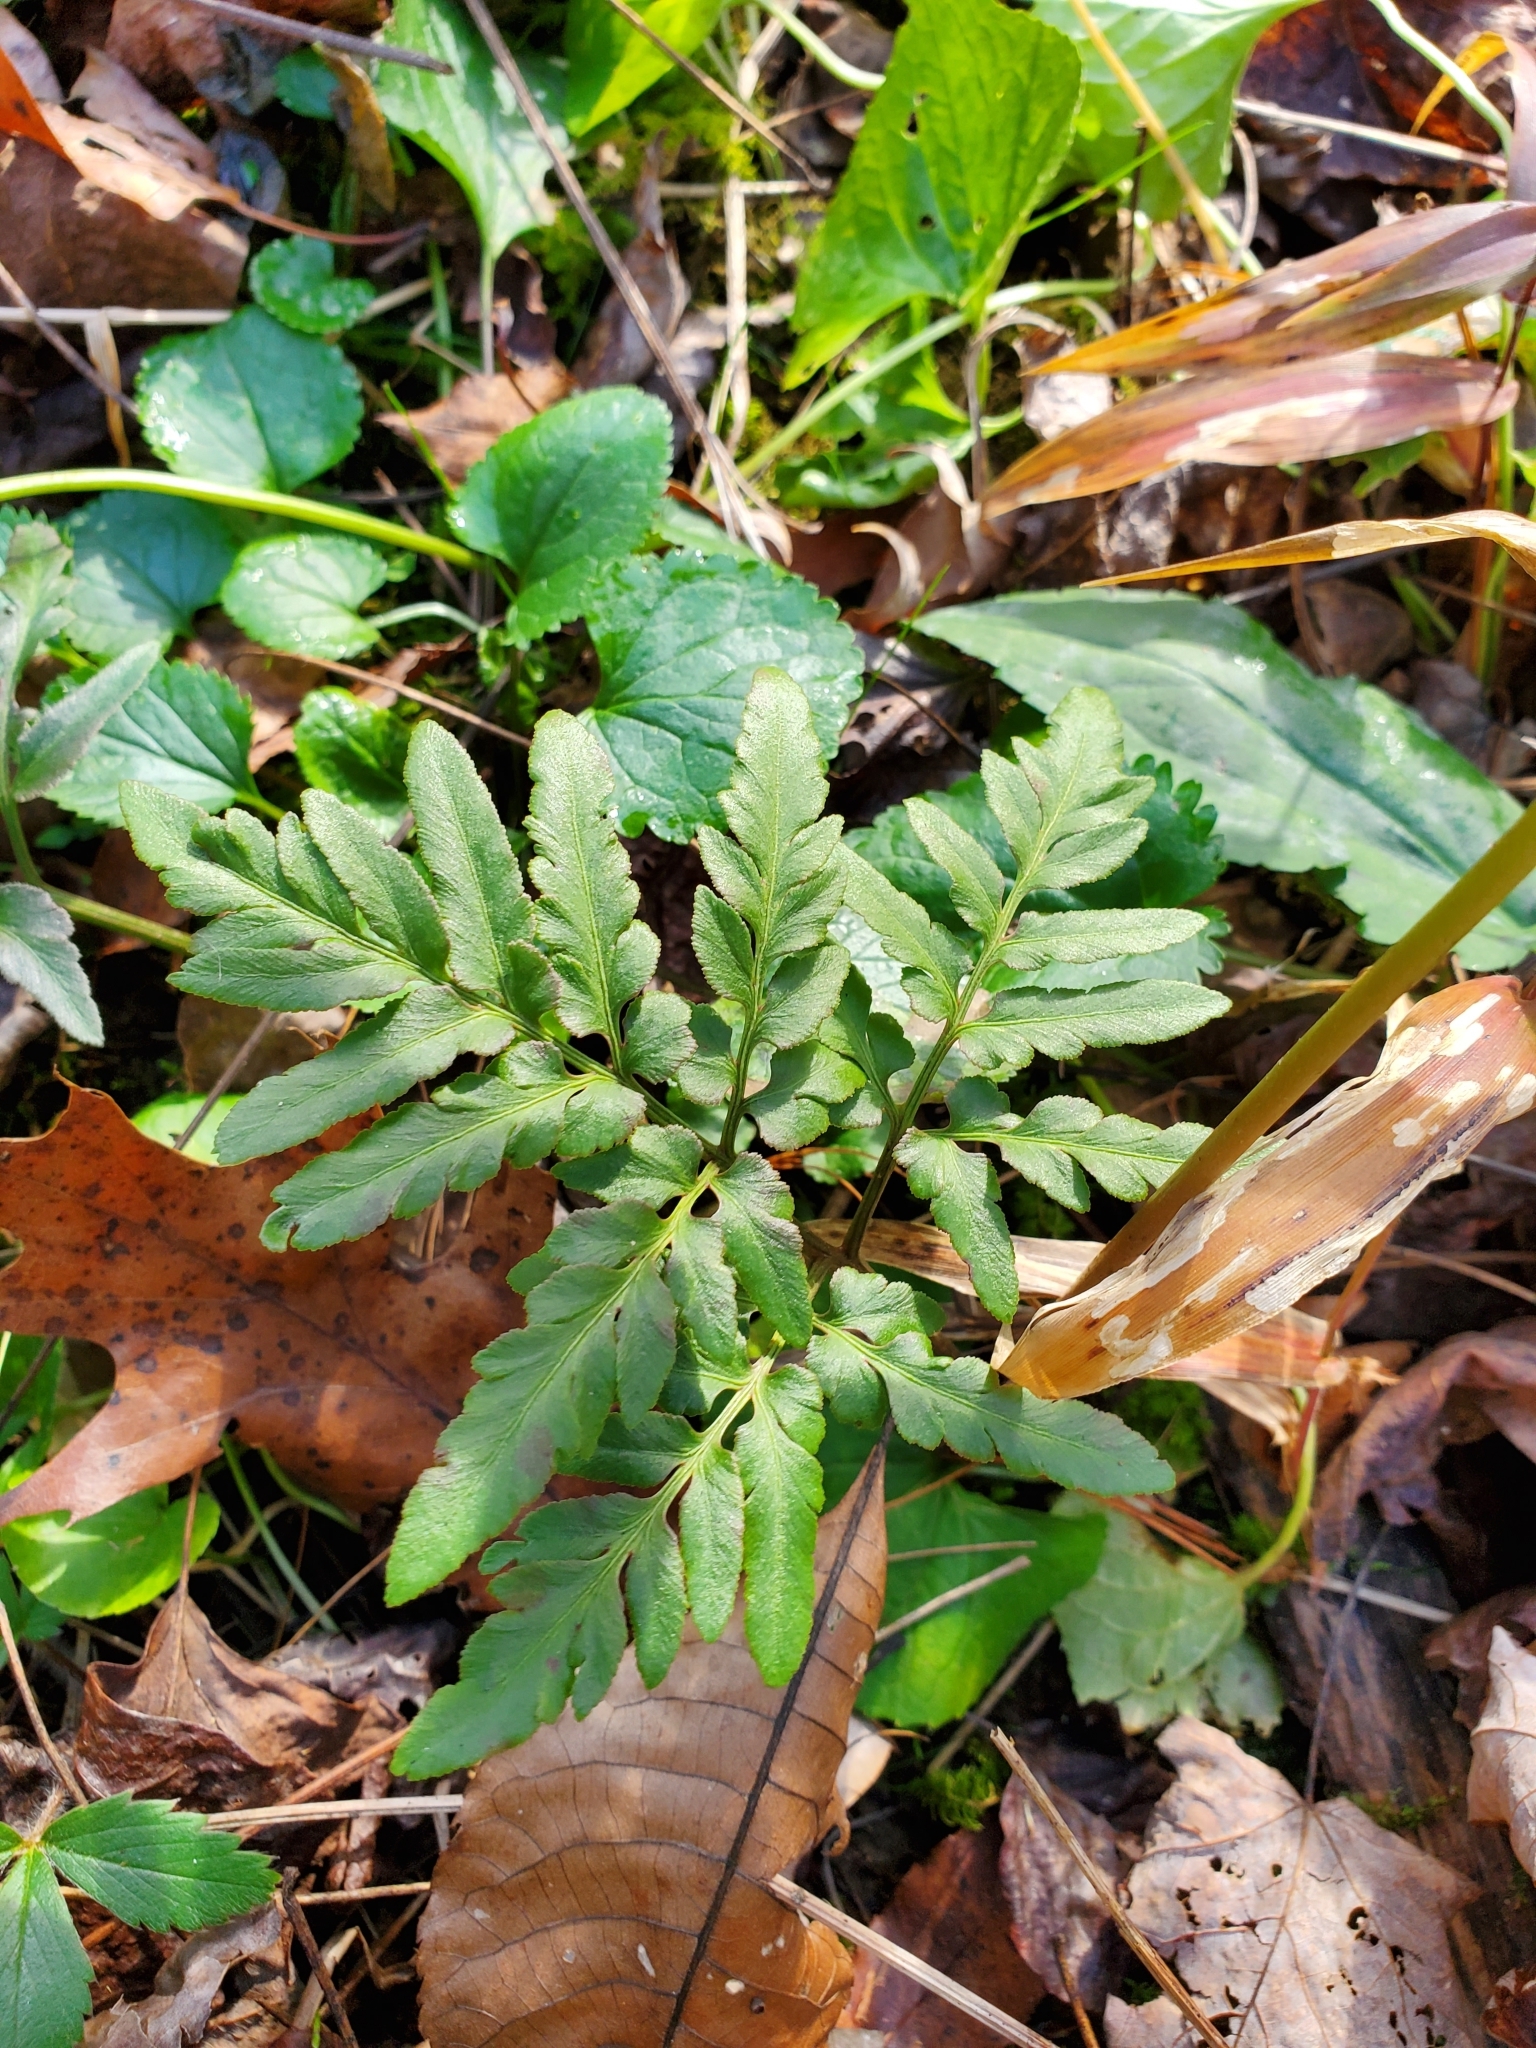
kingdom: Plantae
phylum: Tracheophyta
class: Polypodiopsida
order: Ophioglossales
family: Ophioglossaceae
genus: Sceptridium
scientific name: Sceptridium dissectum
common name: Cut-leaved grapefern
